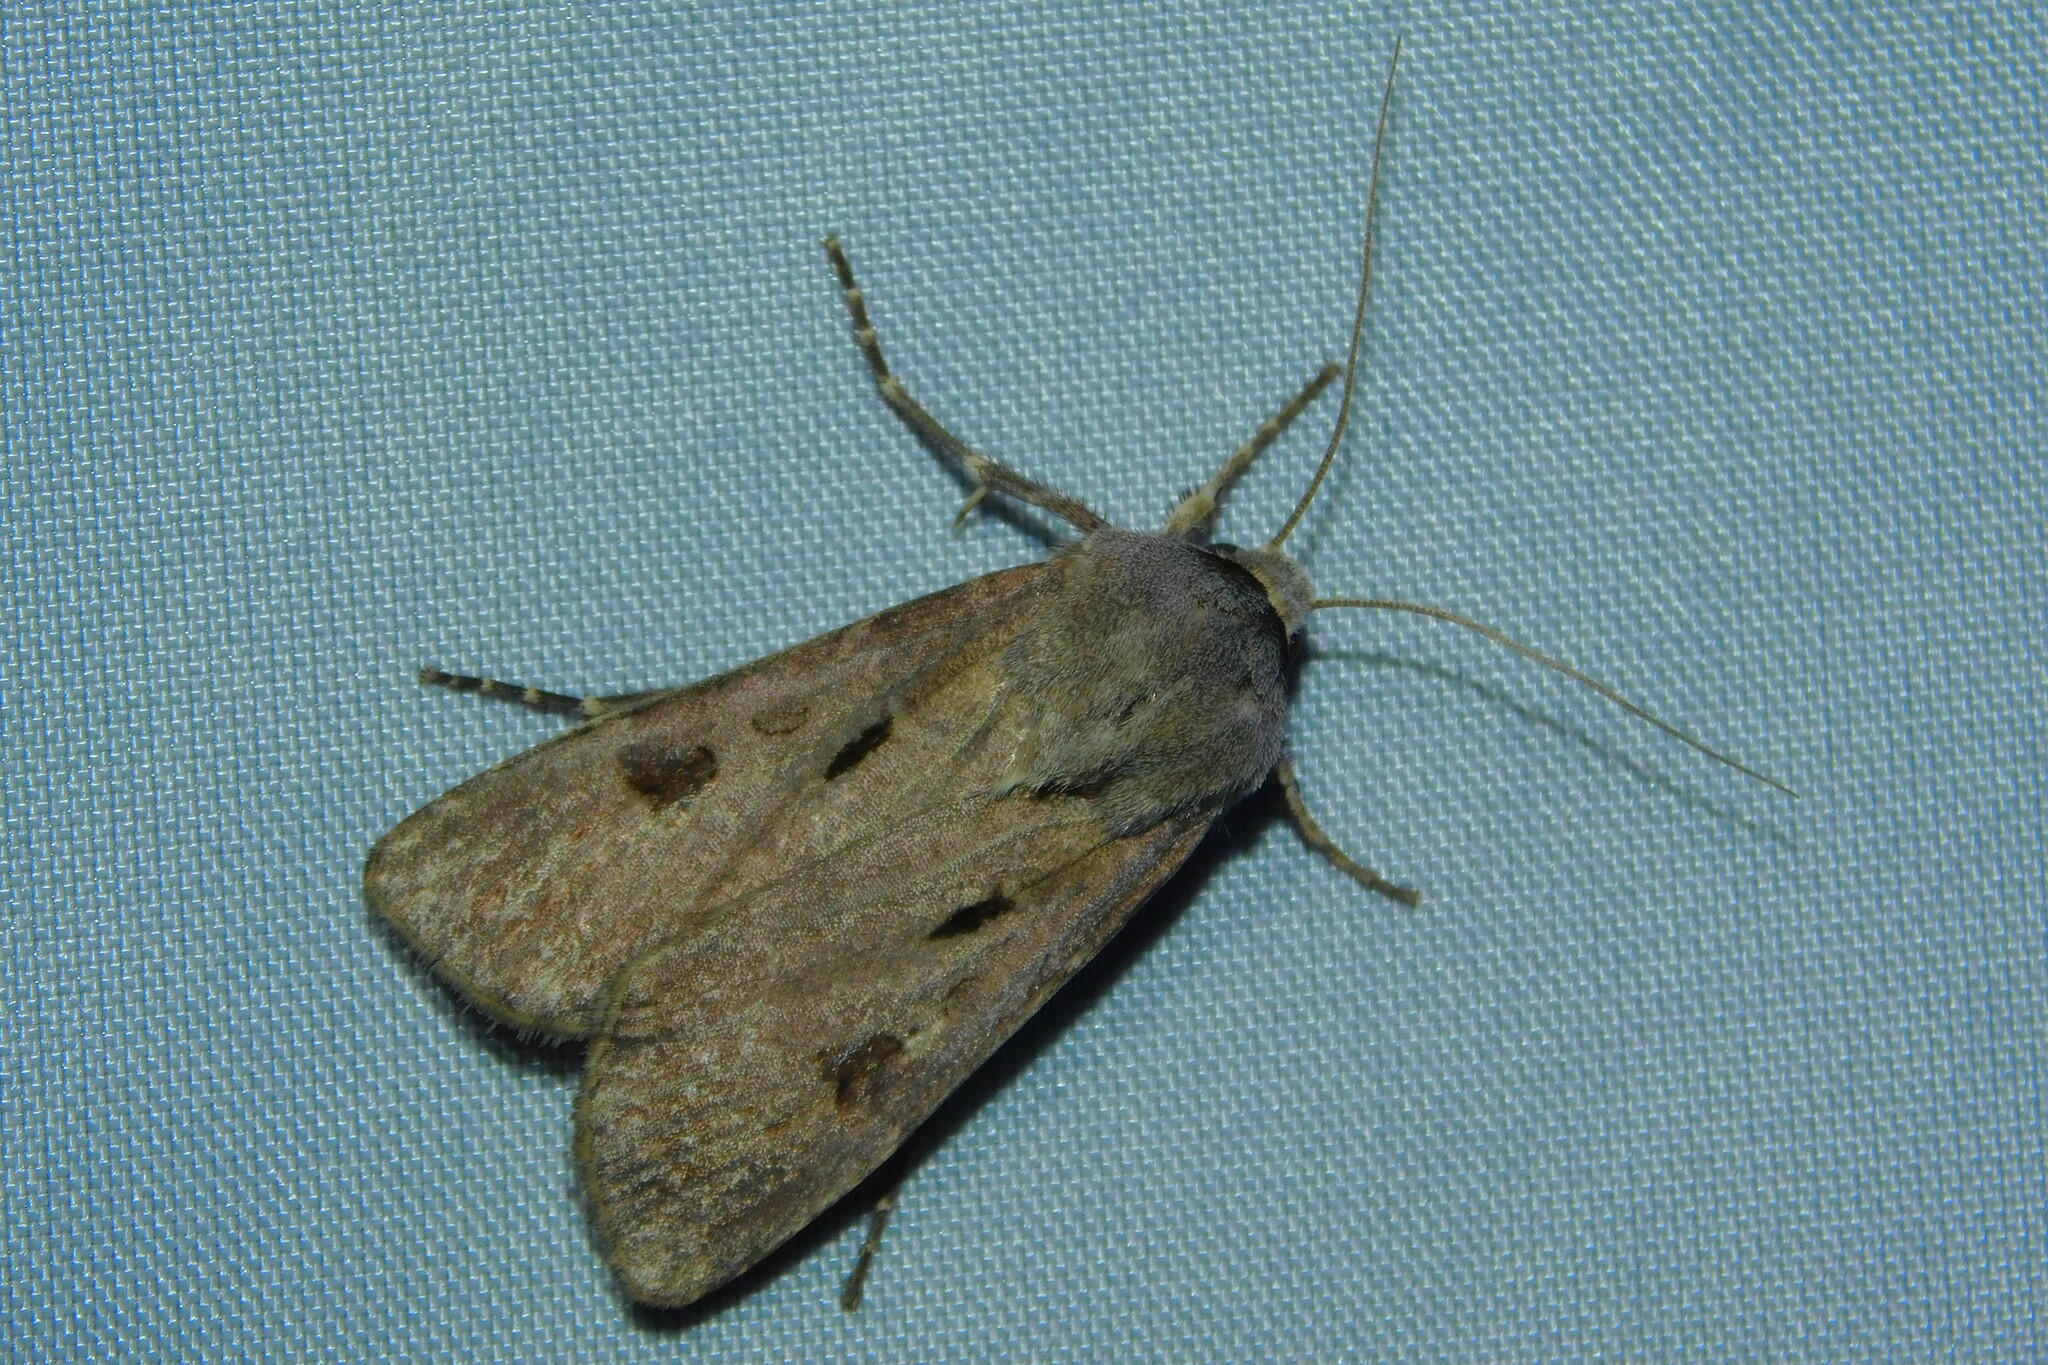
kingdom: Animalia
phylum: Arthropoda
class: Insecta
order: Lepidoptera
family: Noctuidae
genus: Agrotis
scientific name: Agrotis exclamationis
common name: Heart and dart
